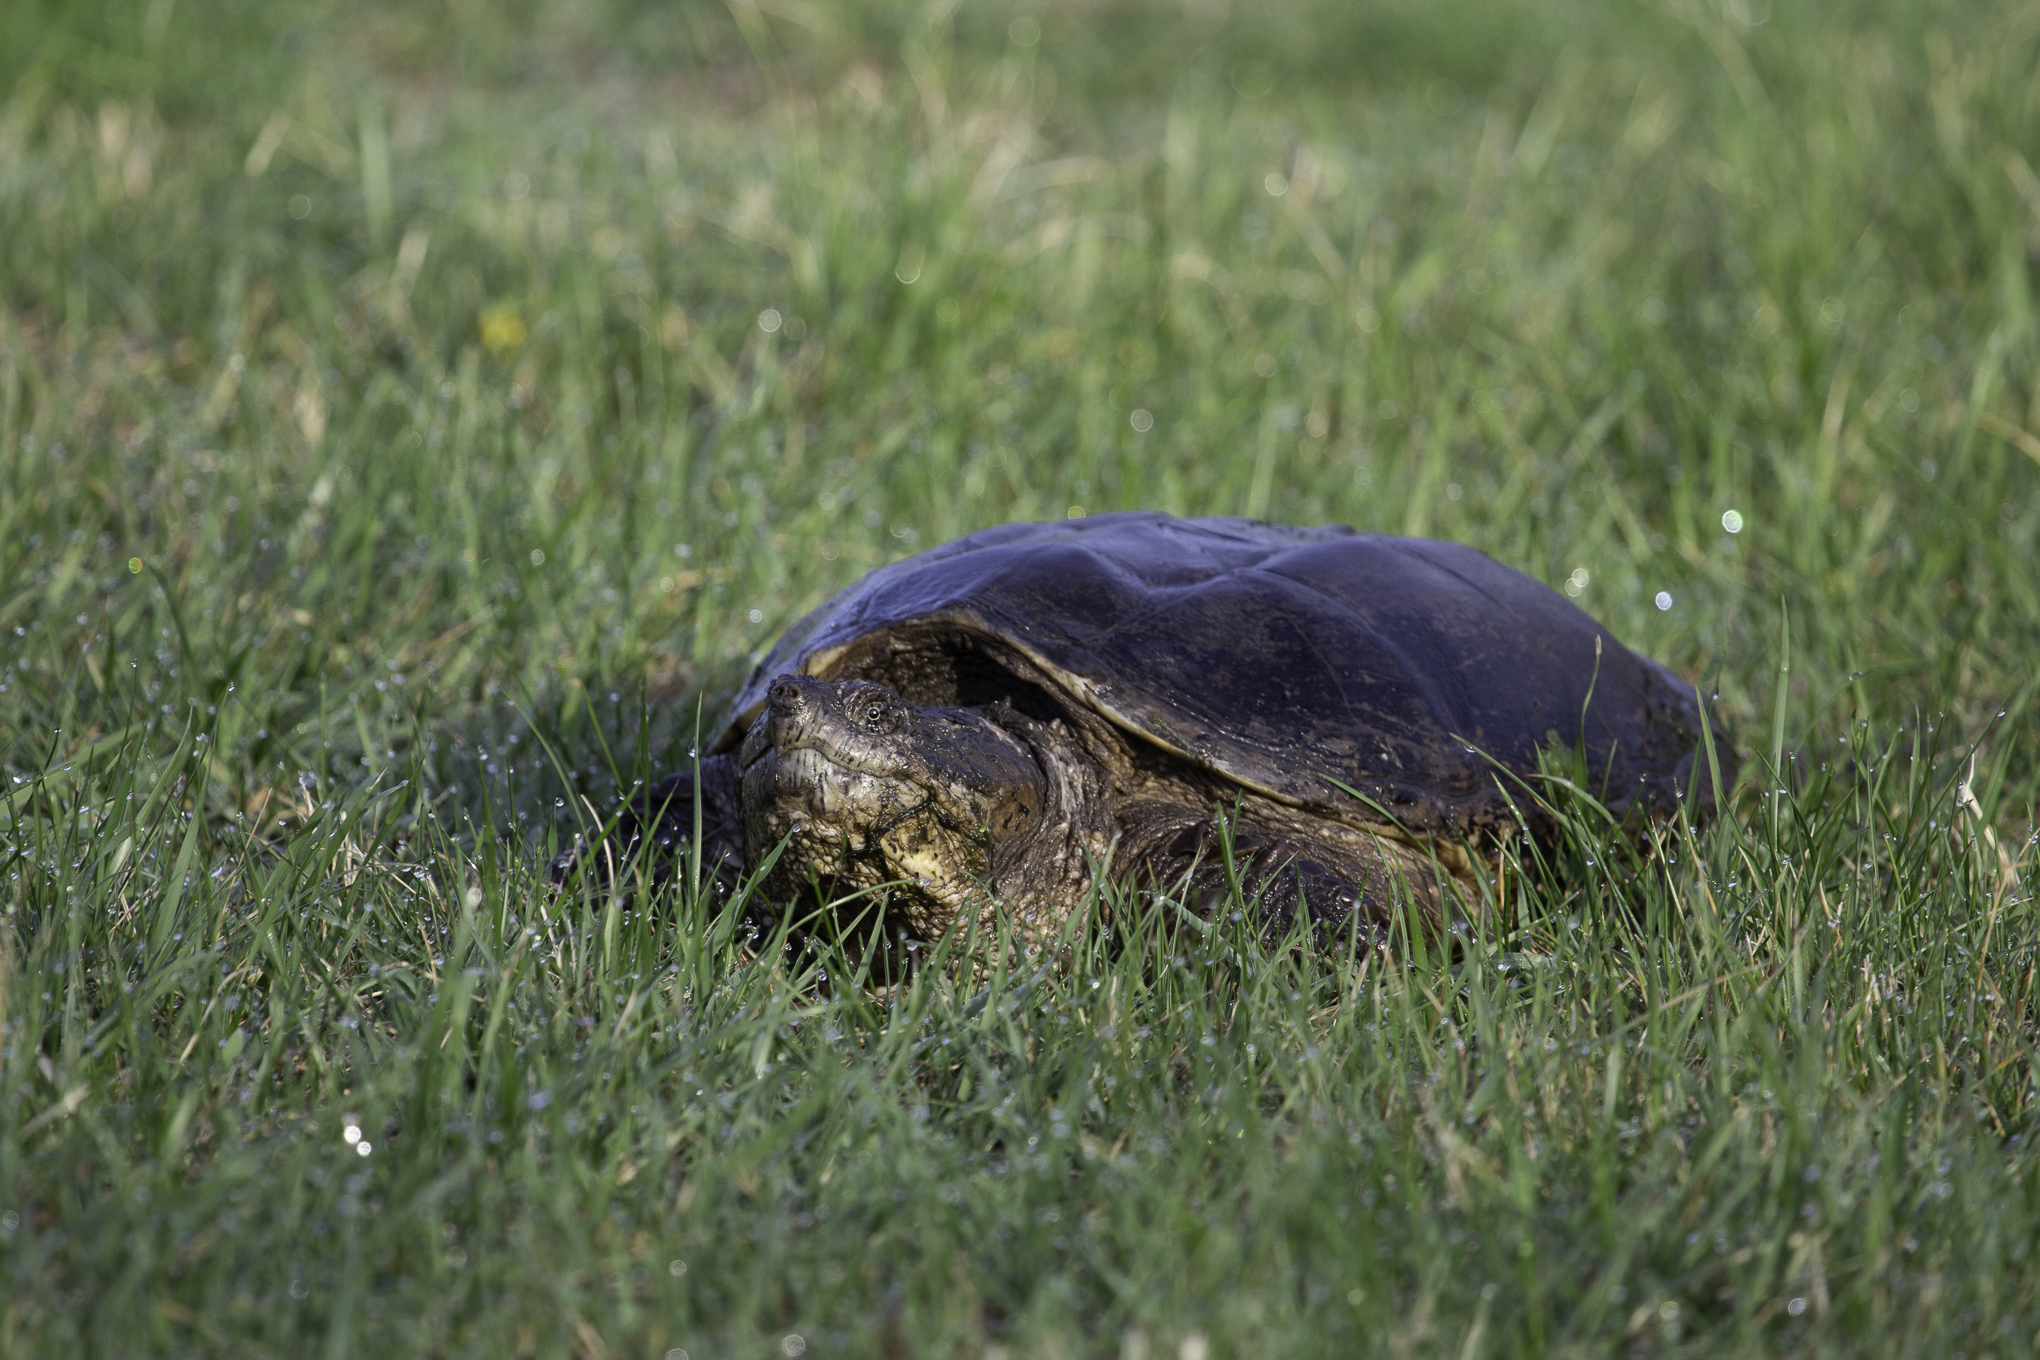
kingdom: Animalia
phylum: Chordata
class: Testudines
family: Chelydridae
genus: Chelydra
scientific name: Chelydra serpentina
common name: Common snapping turtle
